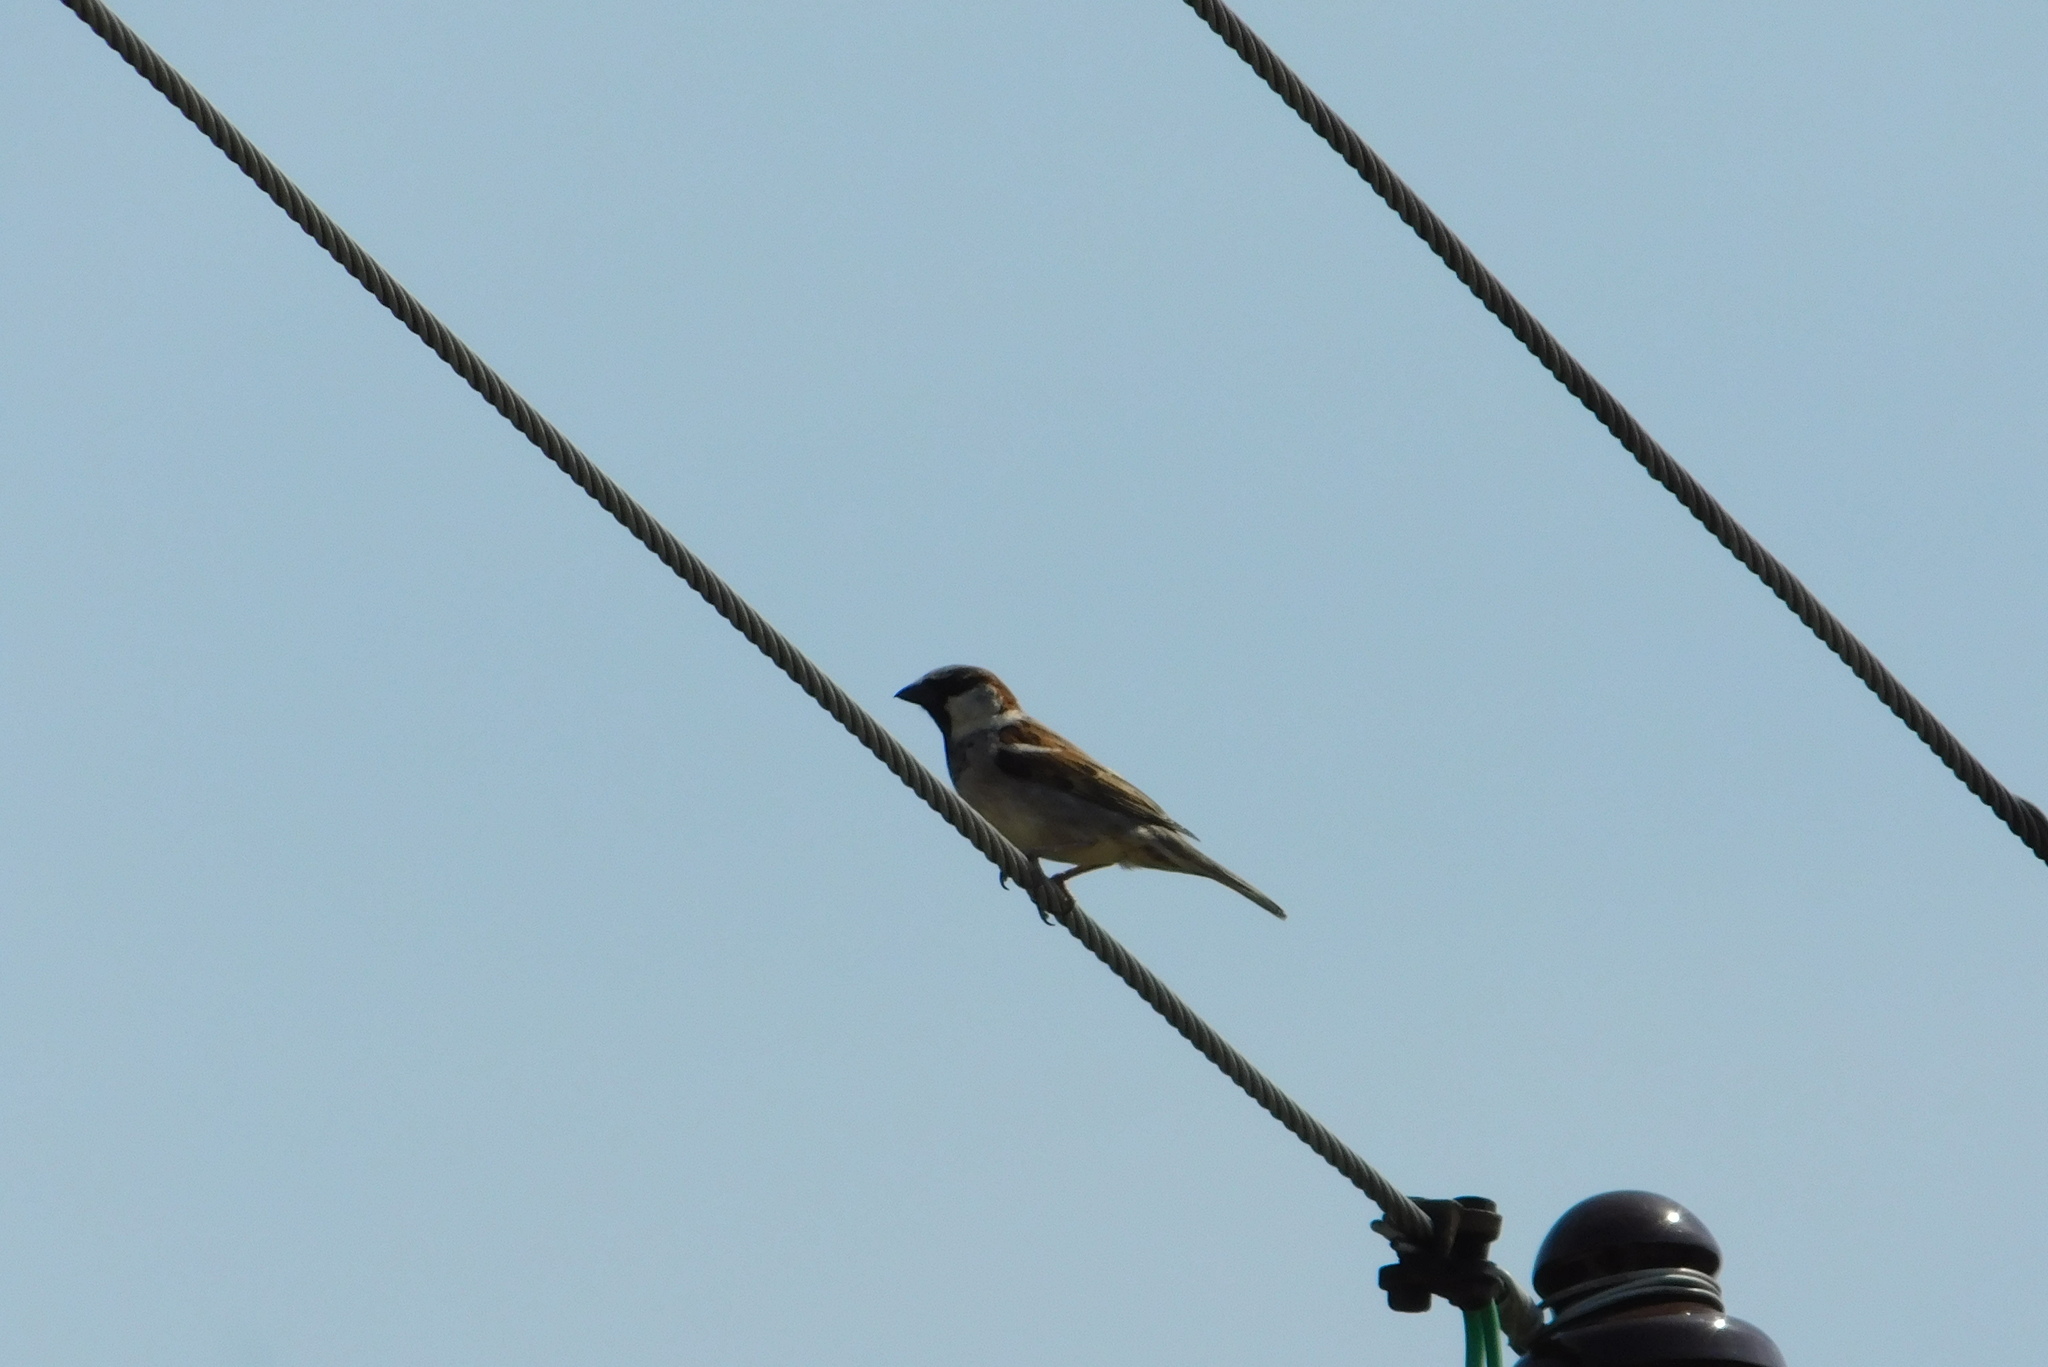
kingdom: Animalia
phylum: Chordata
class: Aves
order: Passeriformes
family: Passeridae
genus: Passer
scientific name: Passer domesticus
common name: House sparrow
